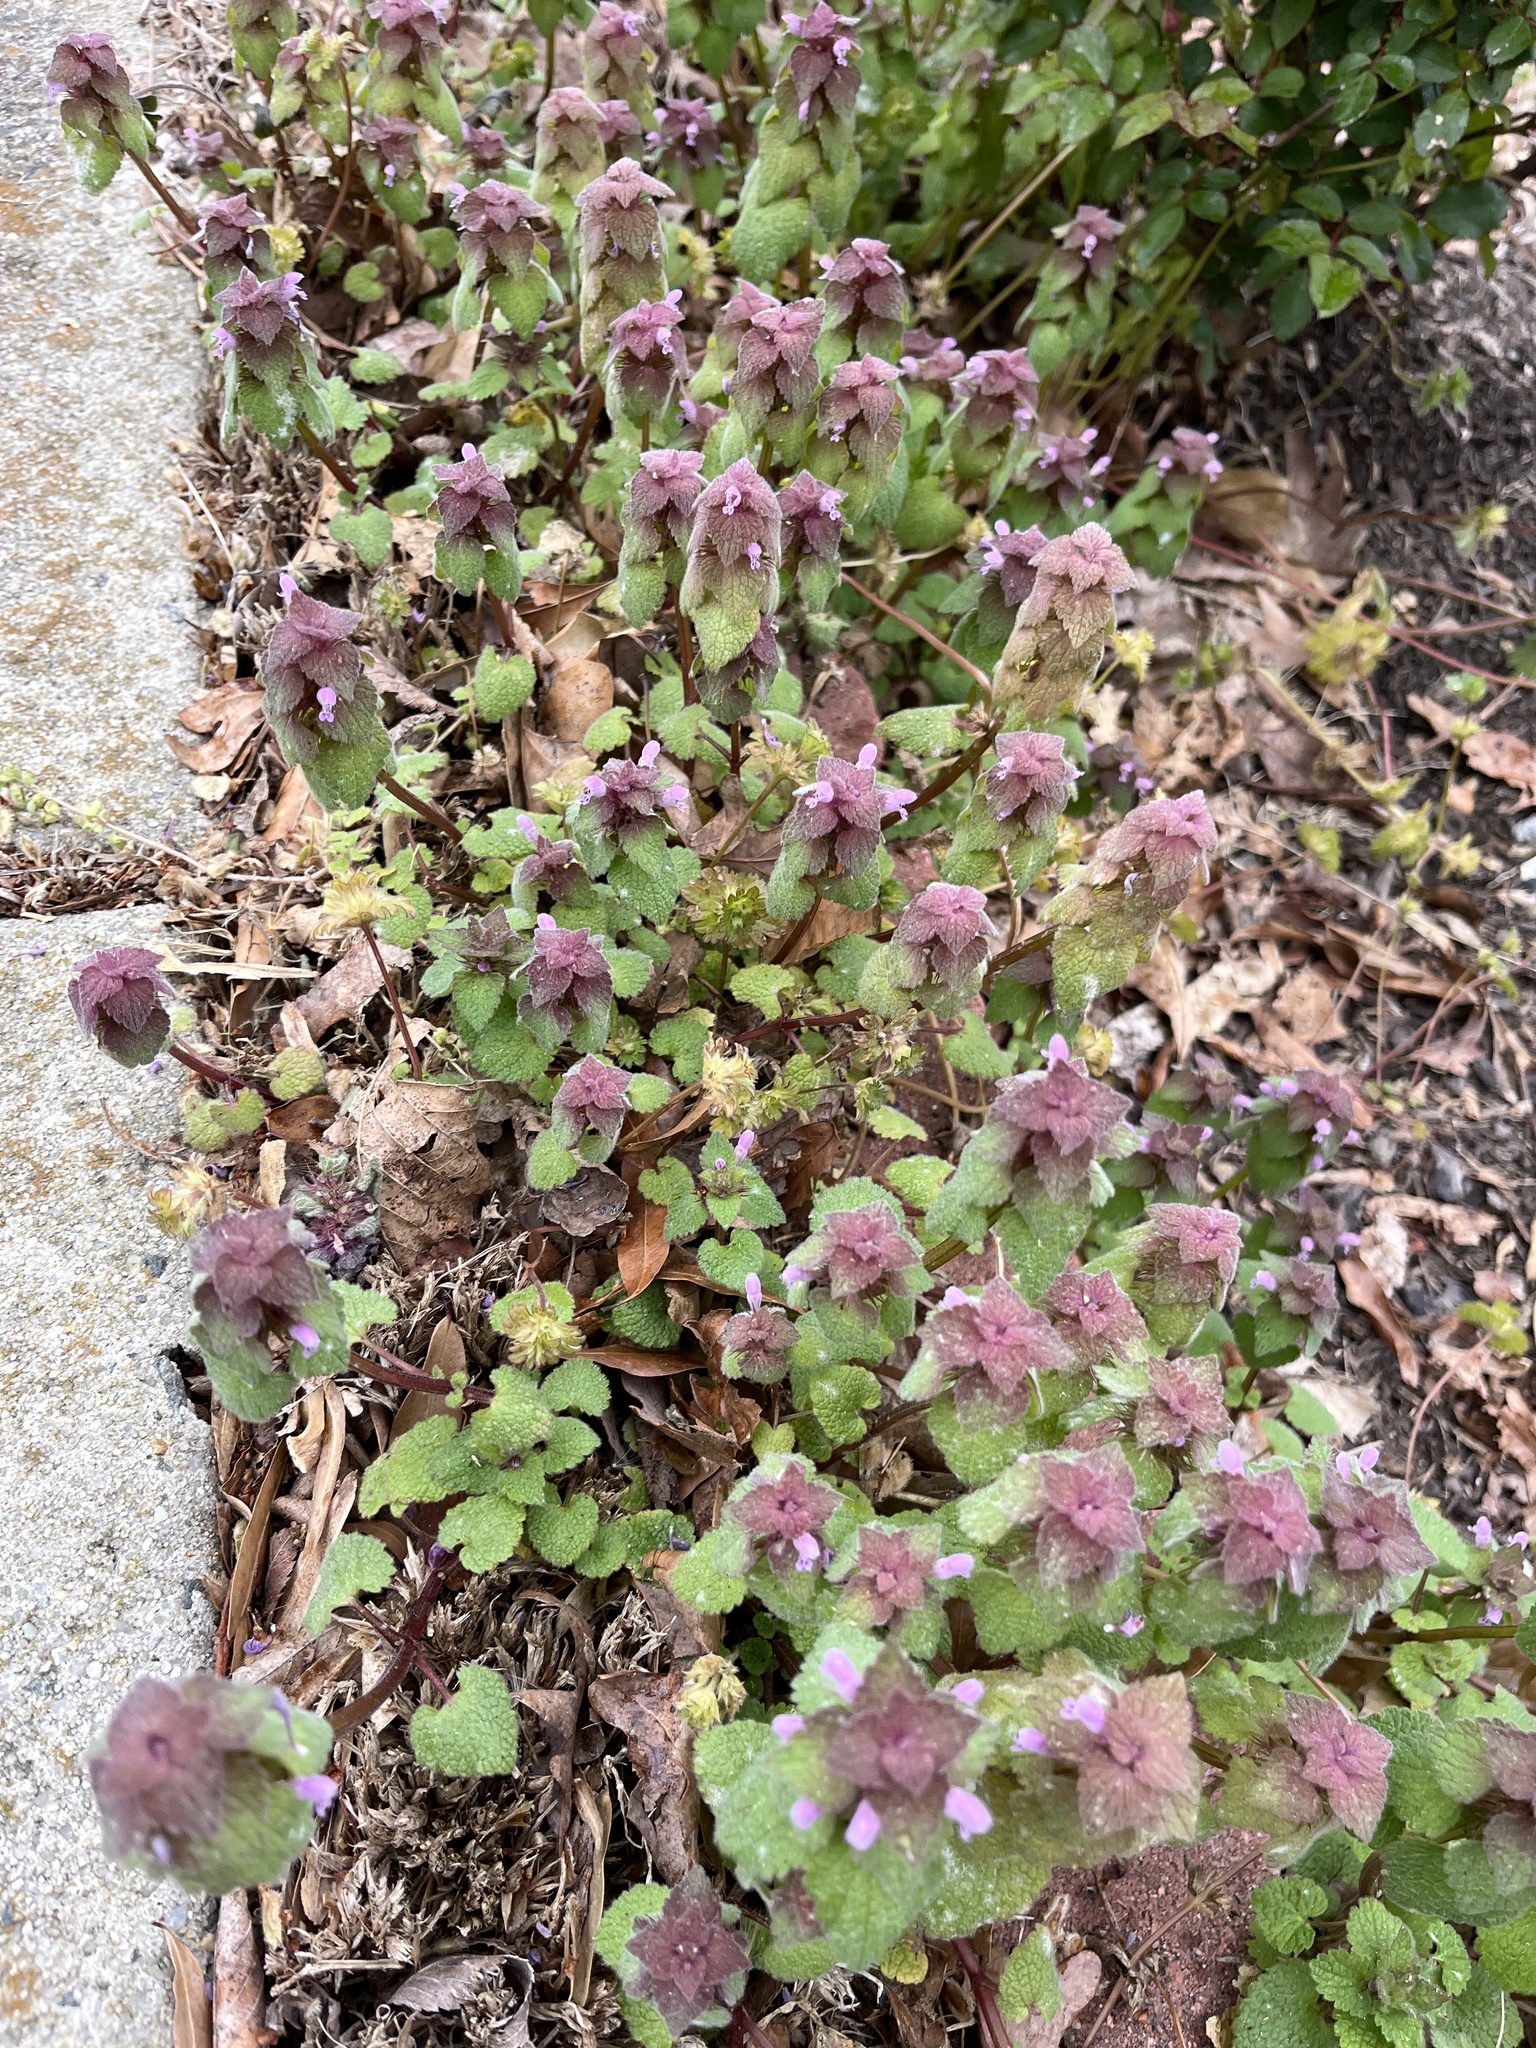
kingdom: Plantae
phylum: Tracheophyta
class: Magnoliopsida
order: Lamiales
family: Lamiaceae
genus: Lamium
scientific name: Lamium purpureum
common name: Red dead-nettle
